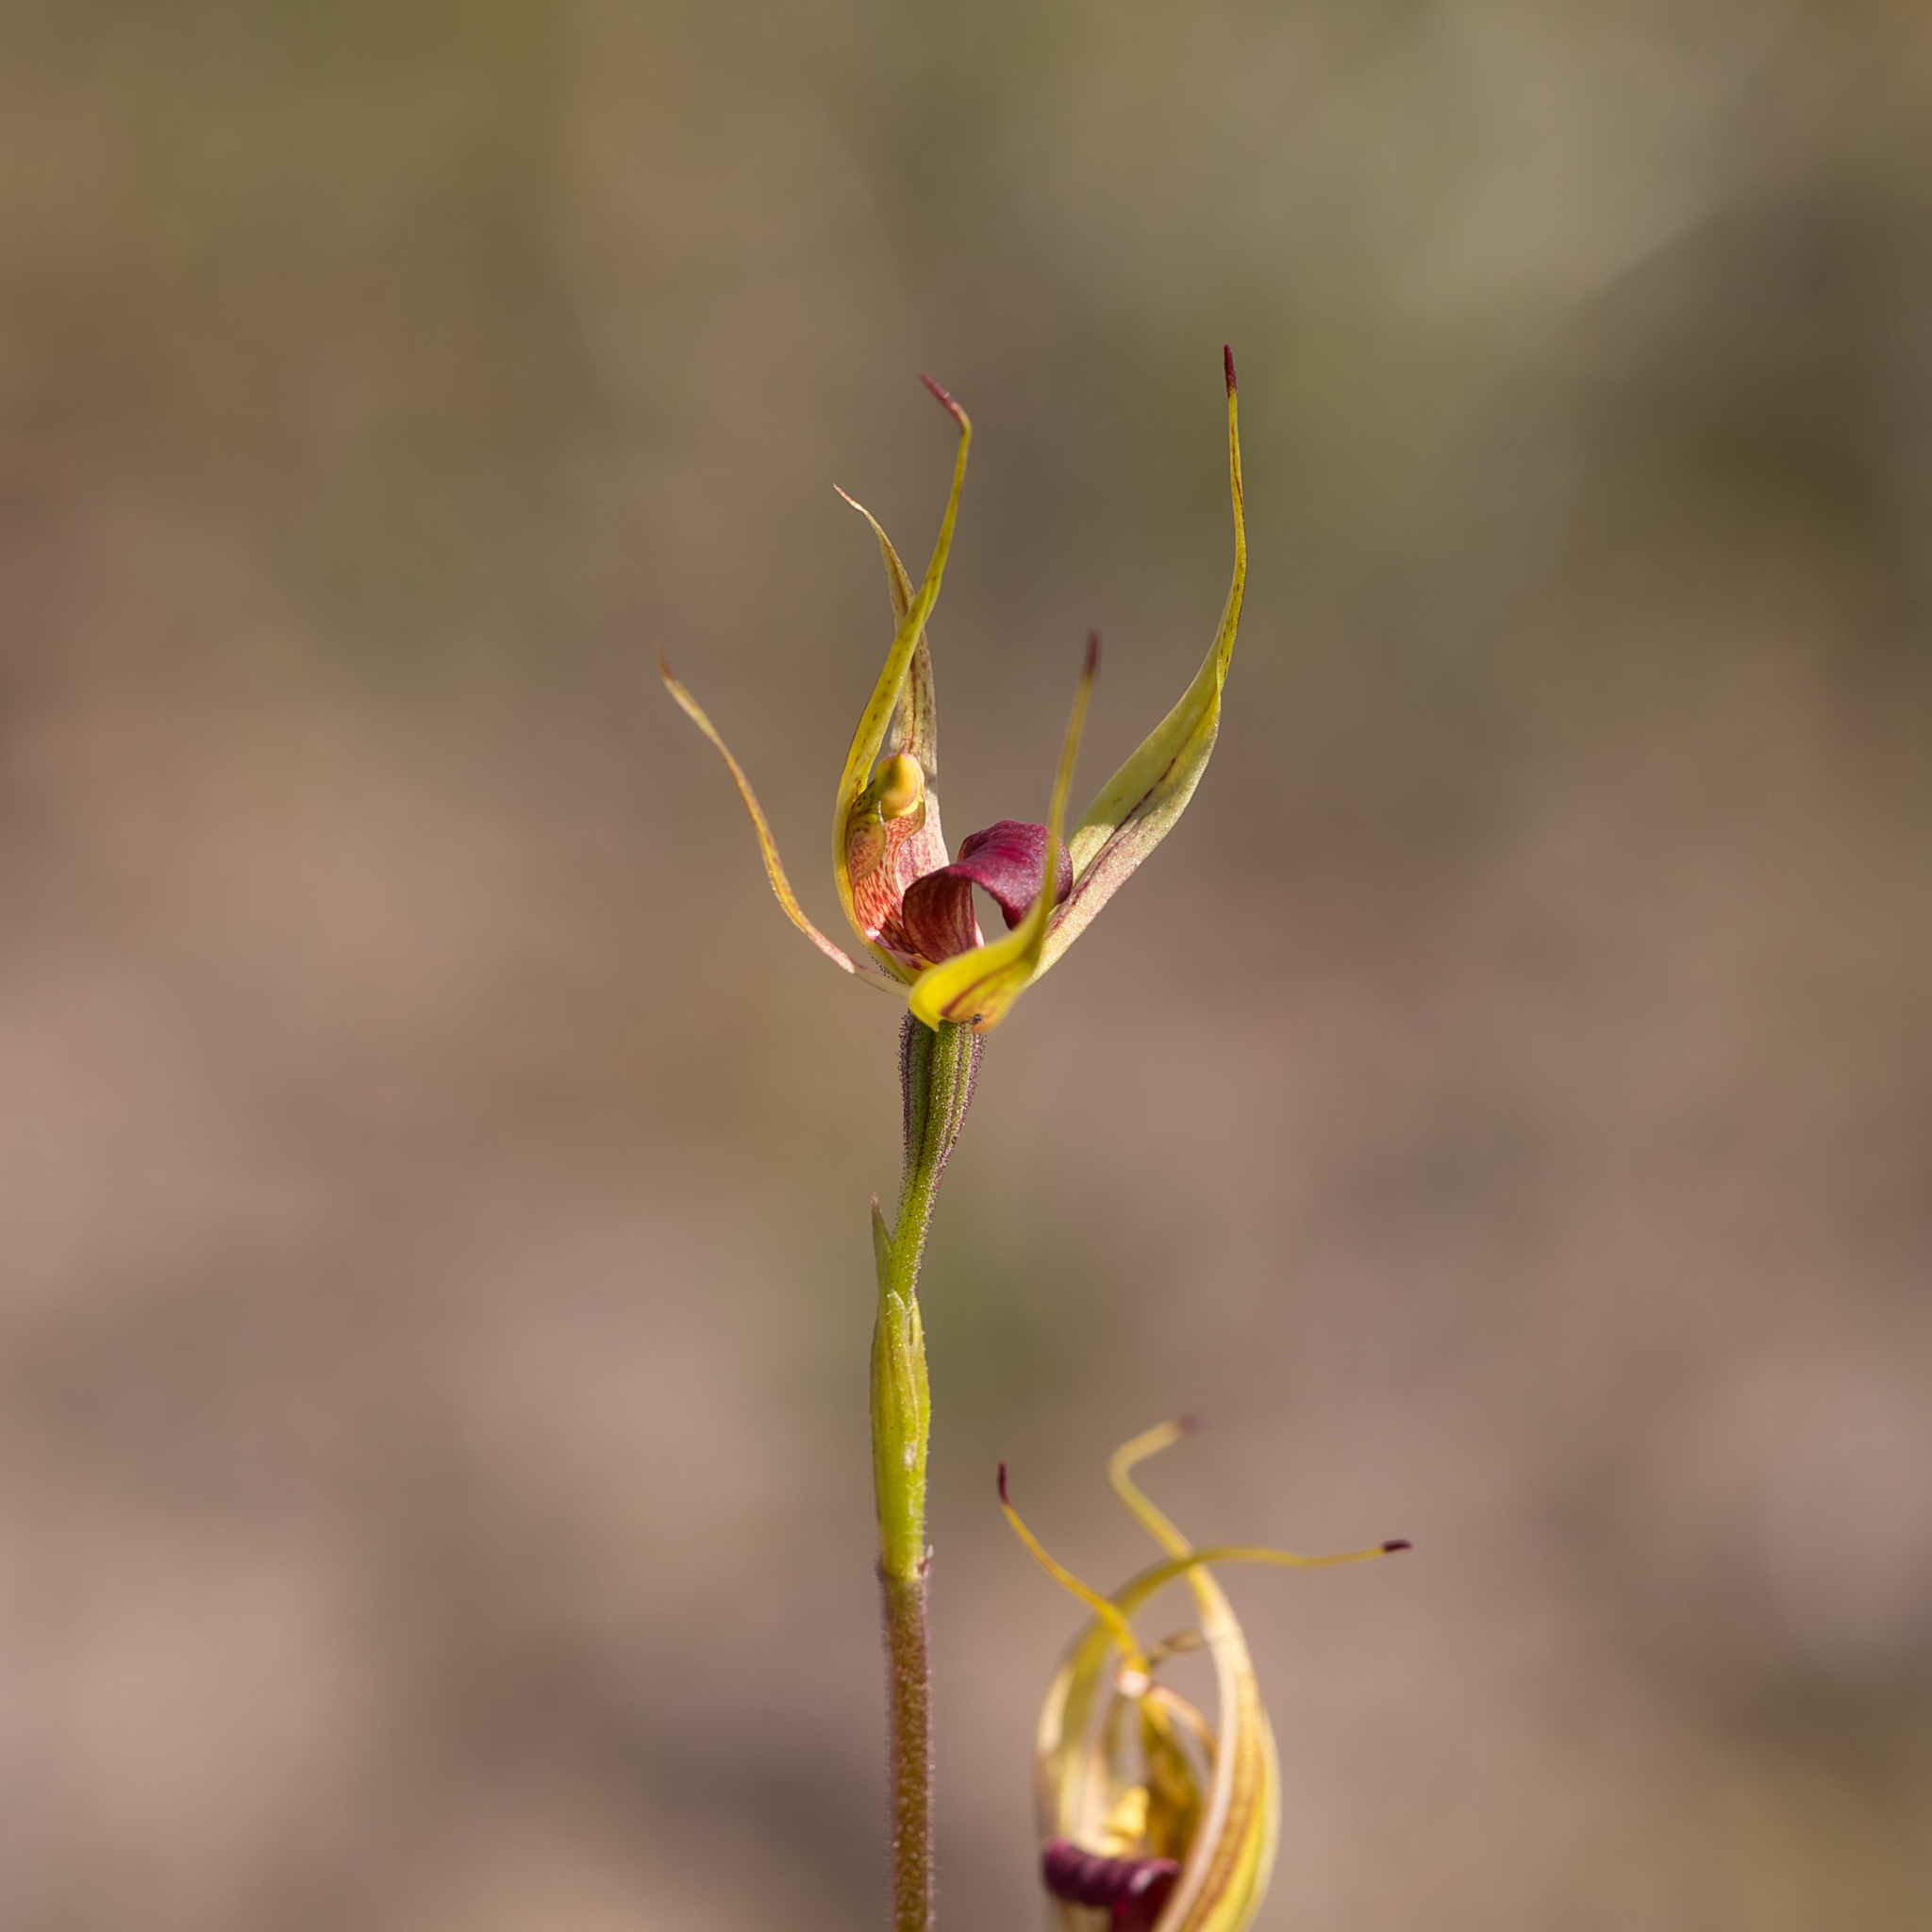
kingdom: Plantae
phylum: Tracheophyta
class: Liliopsida
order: Asparagales
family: Orchidaceae
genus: Caladenia
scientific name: Caladenia leptochila
